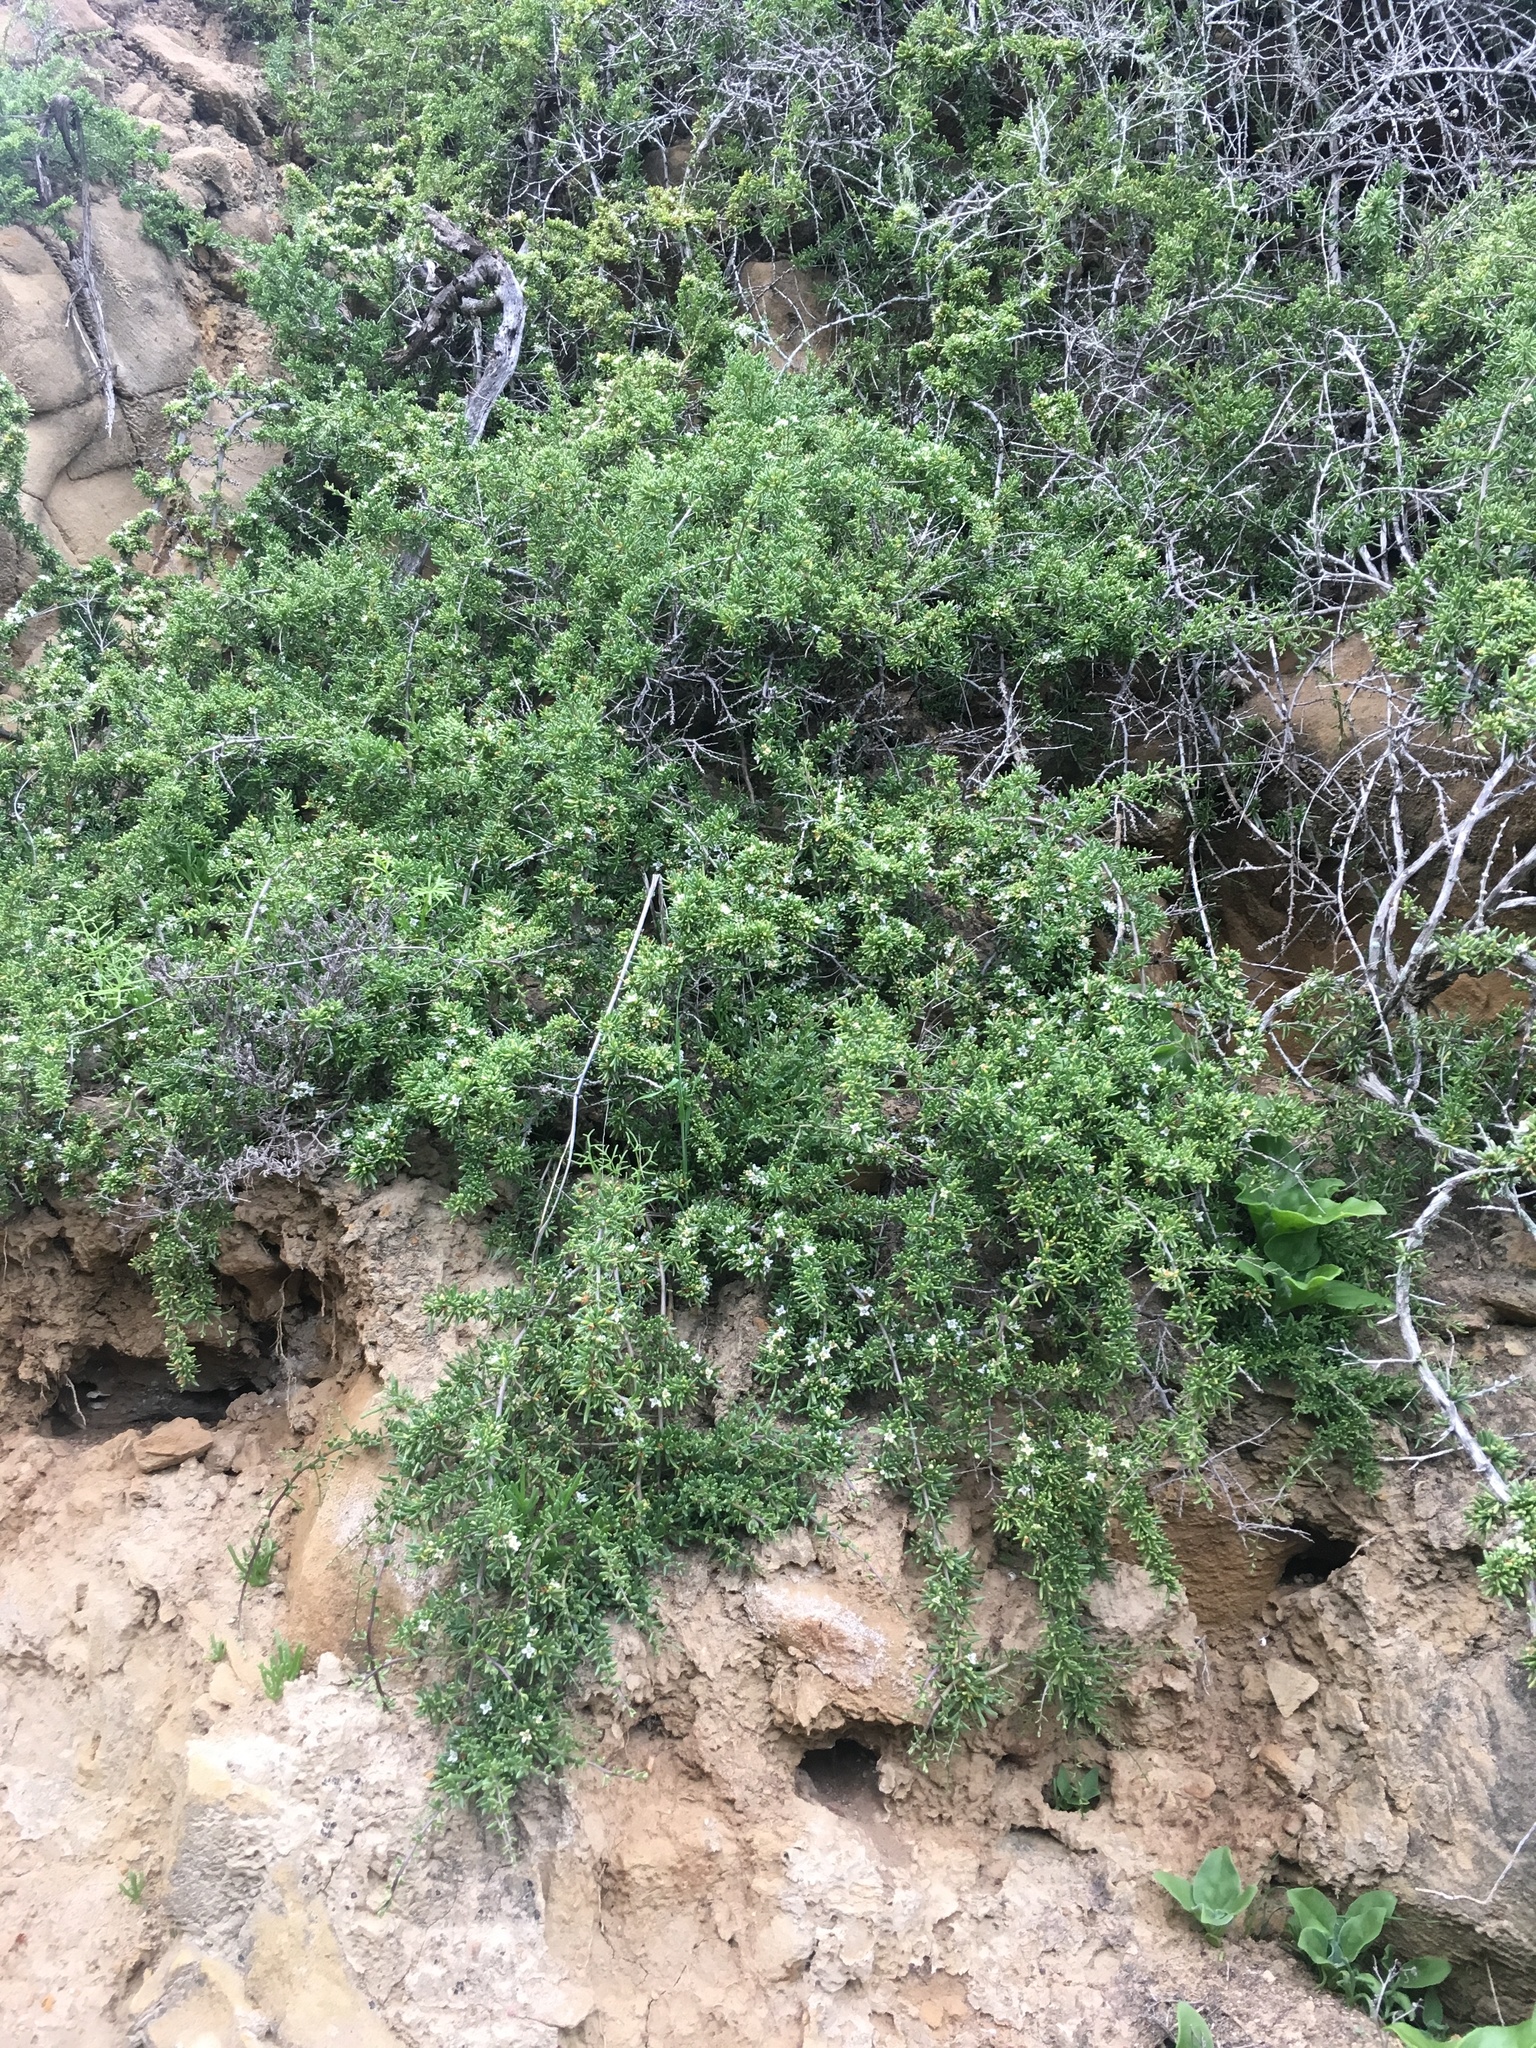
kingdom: Plantae
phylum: Tracheophyta
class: Magnoliopsida
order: Solanales
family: Solanaceae
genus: Lycium
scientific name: Lycium californicum
